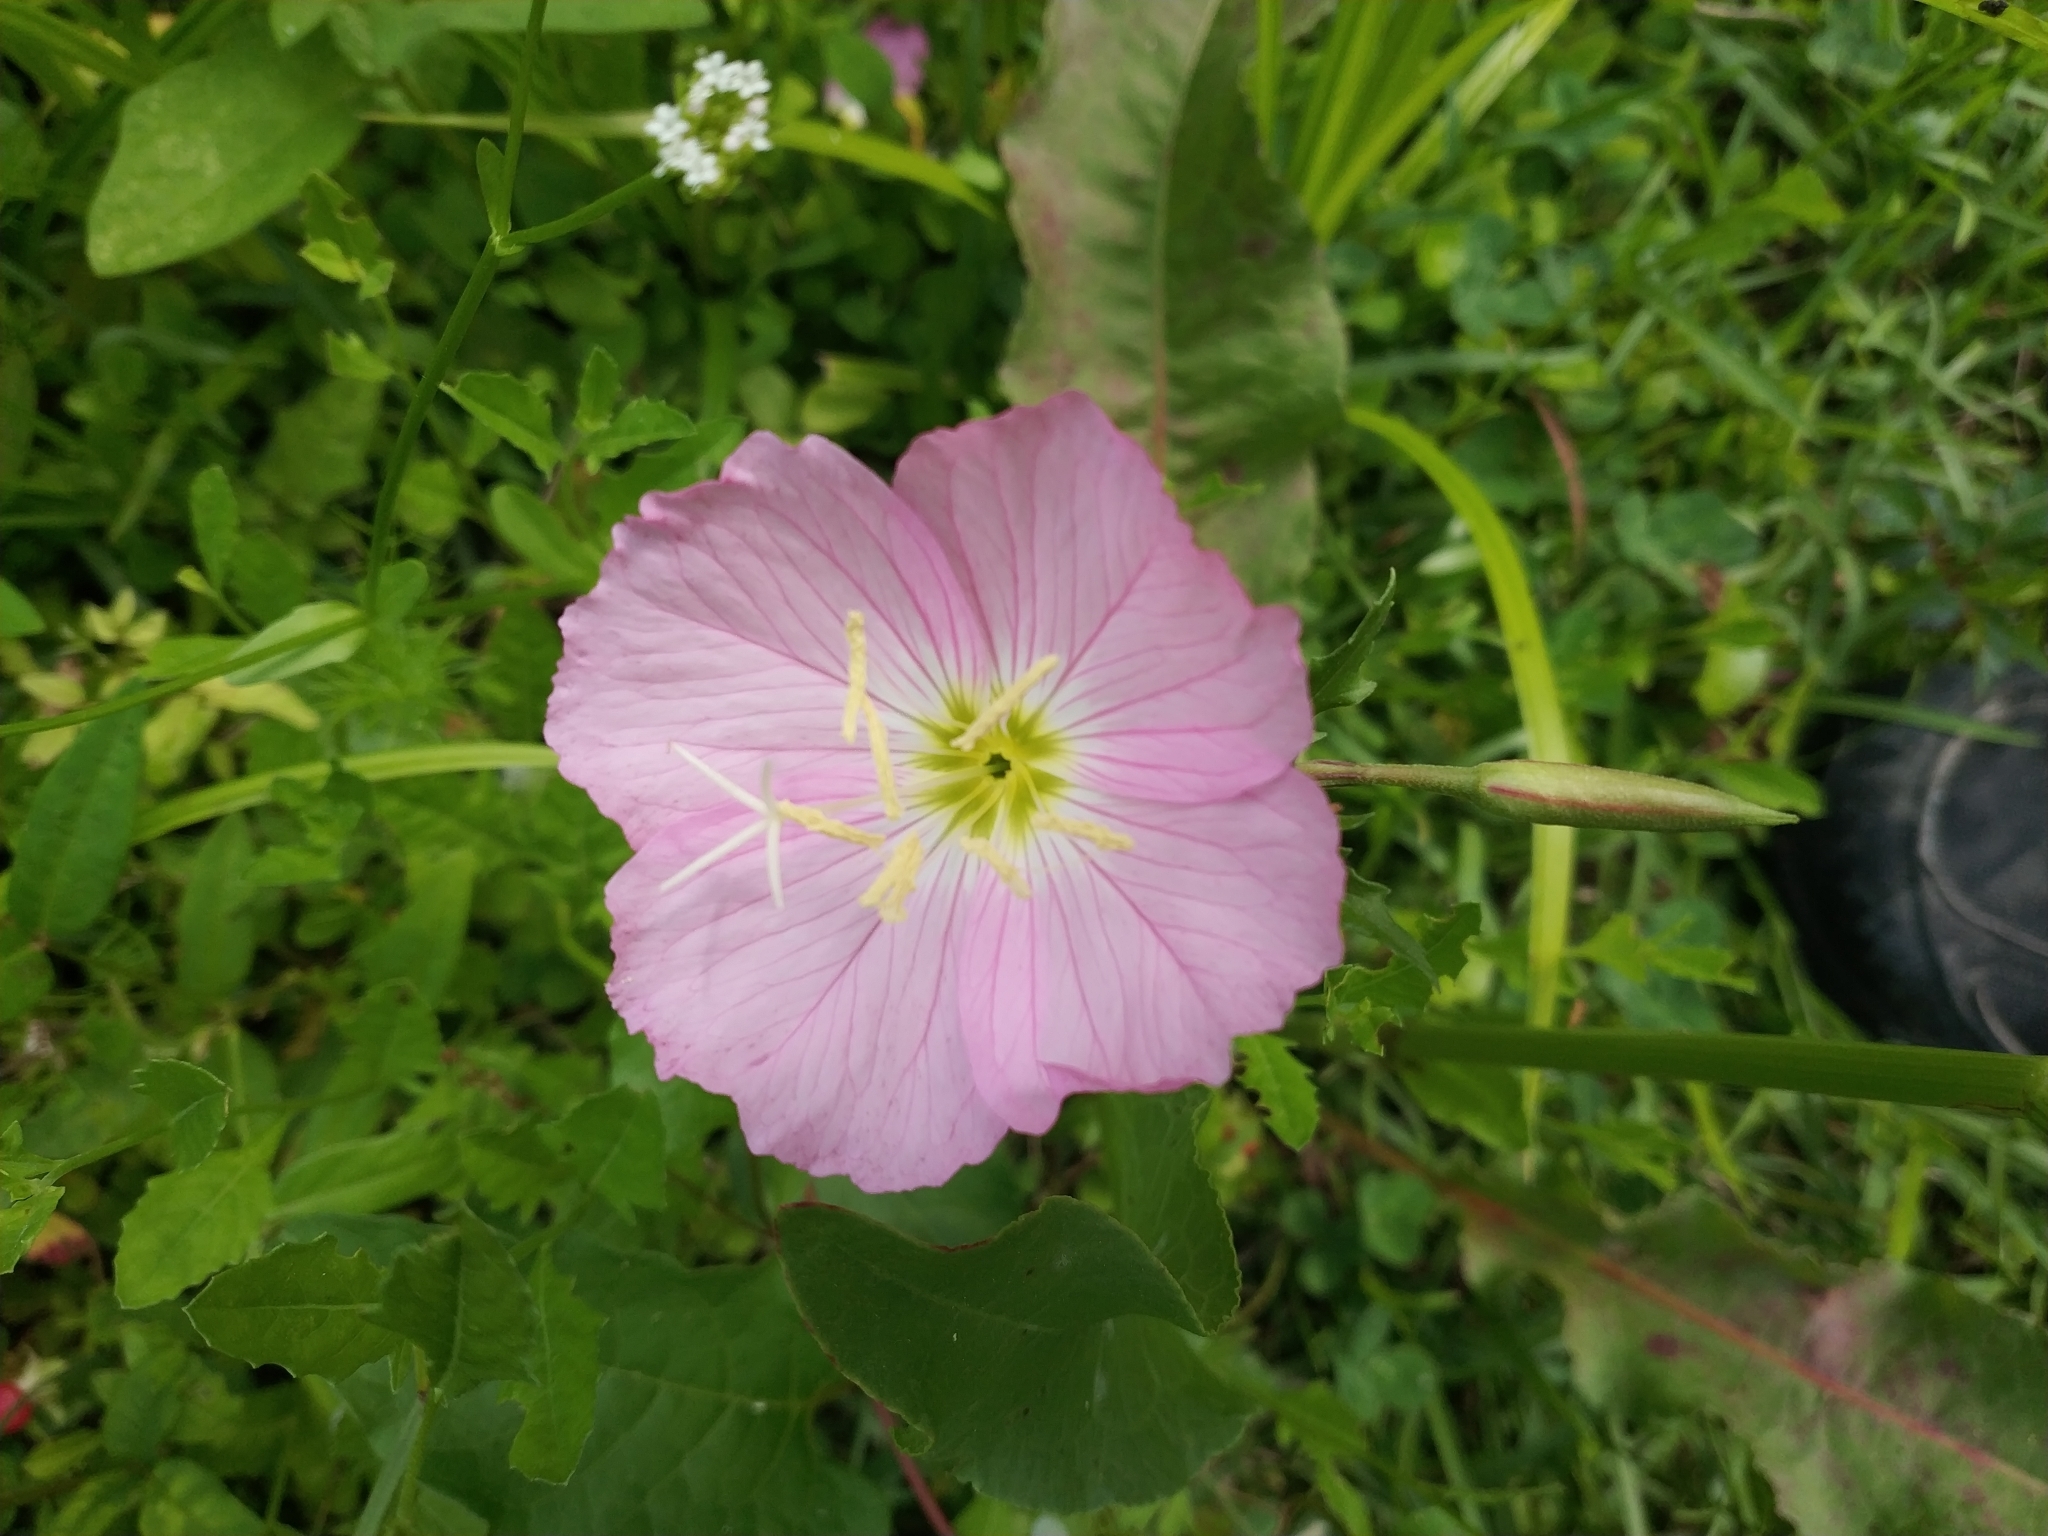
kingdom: Plantae
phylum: Tracheophyta
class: Magnoliopsida
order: Myrtales
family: Onagraceae
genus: Oenothera
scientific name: Oenothera speciosa
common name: White evening-primrose
